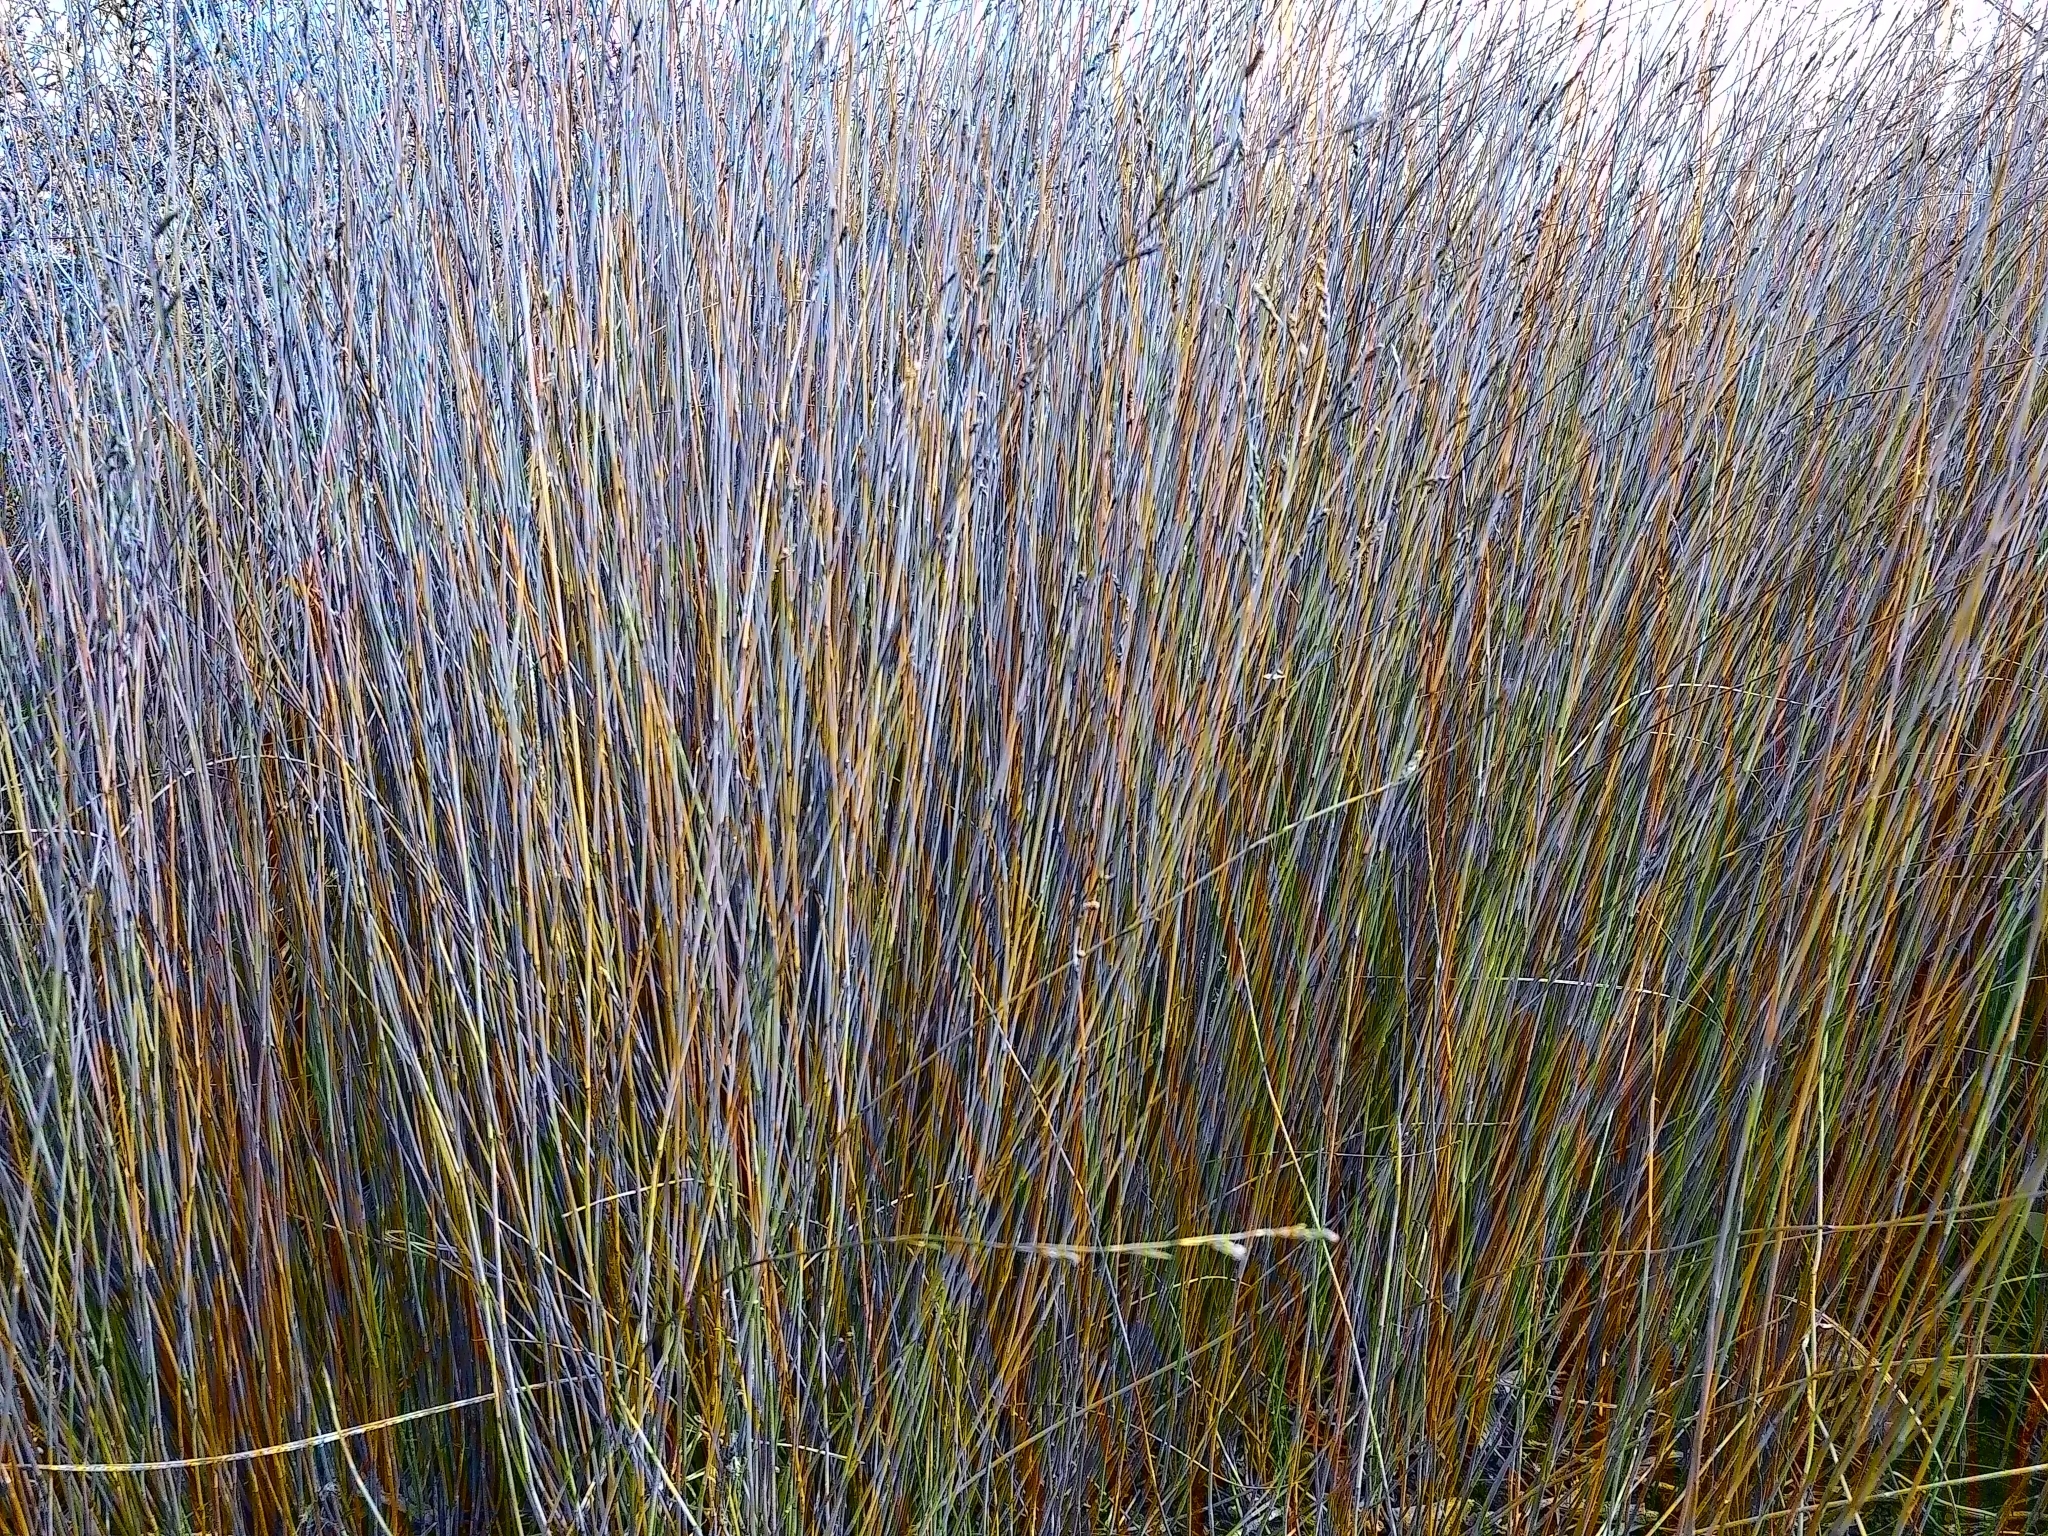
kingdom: Plantae
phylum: Tracheophyta
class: Liliopsida
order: Poales
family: Restionaceae
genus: Apodasmia
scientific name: Apodasmia similis
